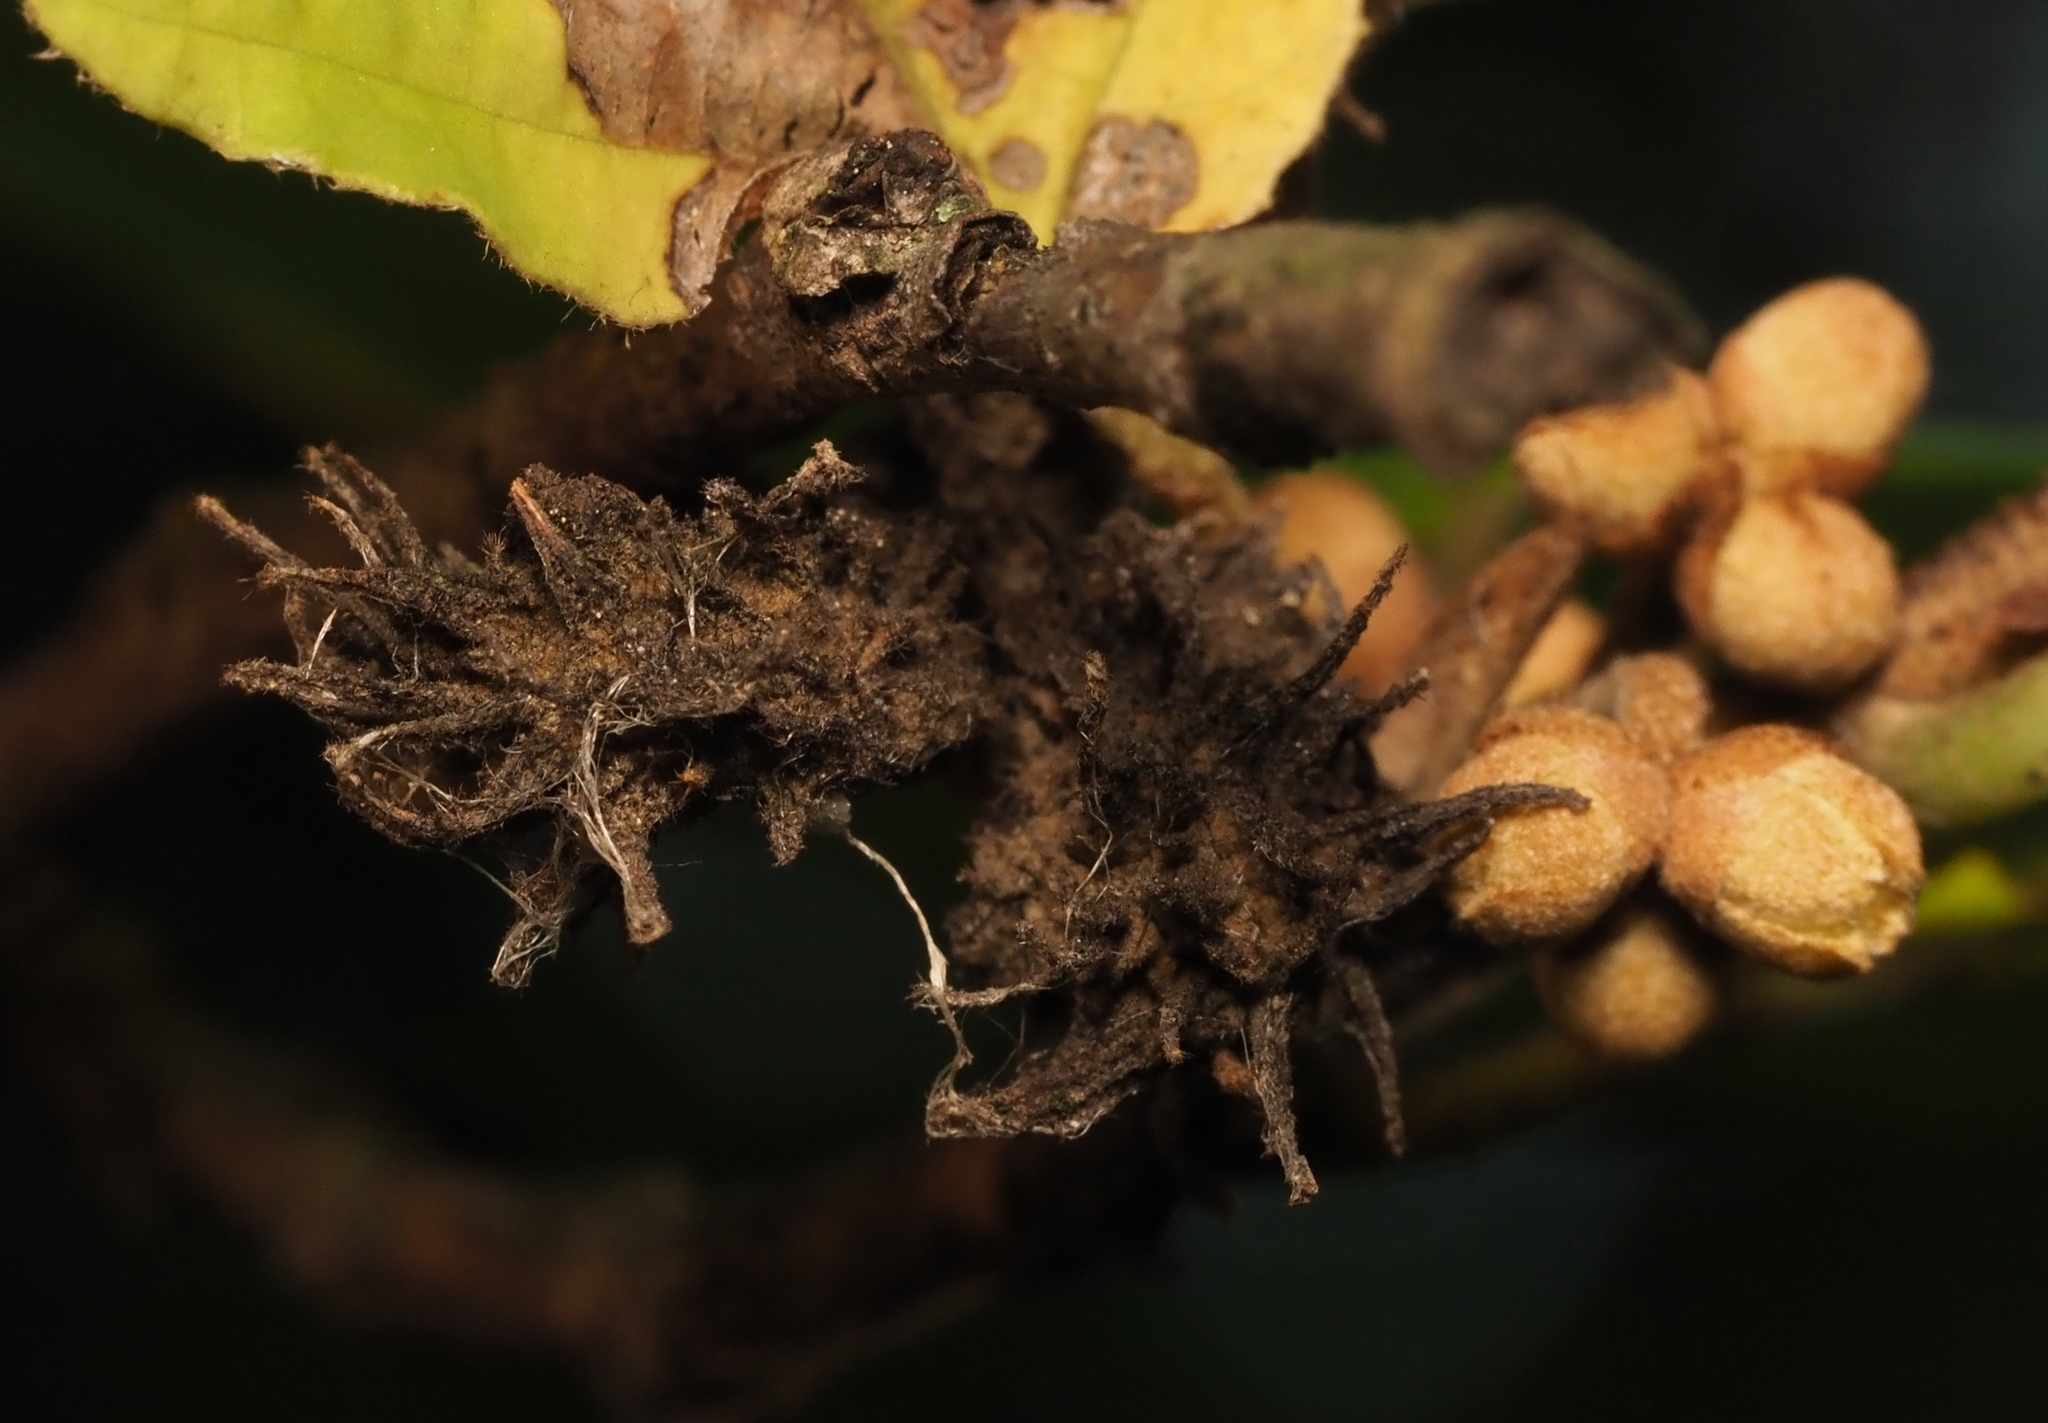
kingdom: Animalia
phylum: Arthropoda
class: Insecta
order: Hemiptera
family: Aphididae
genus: Hamamelistes
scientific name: Hamamelistes spinosus
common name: Witch hazel gall aphid
